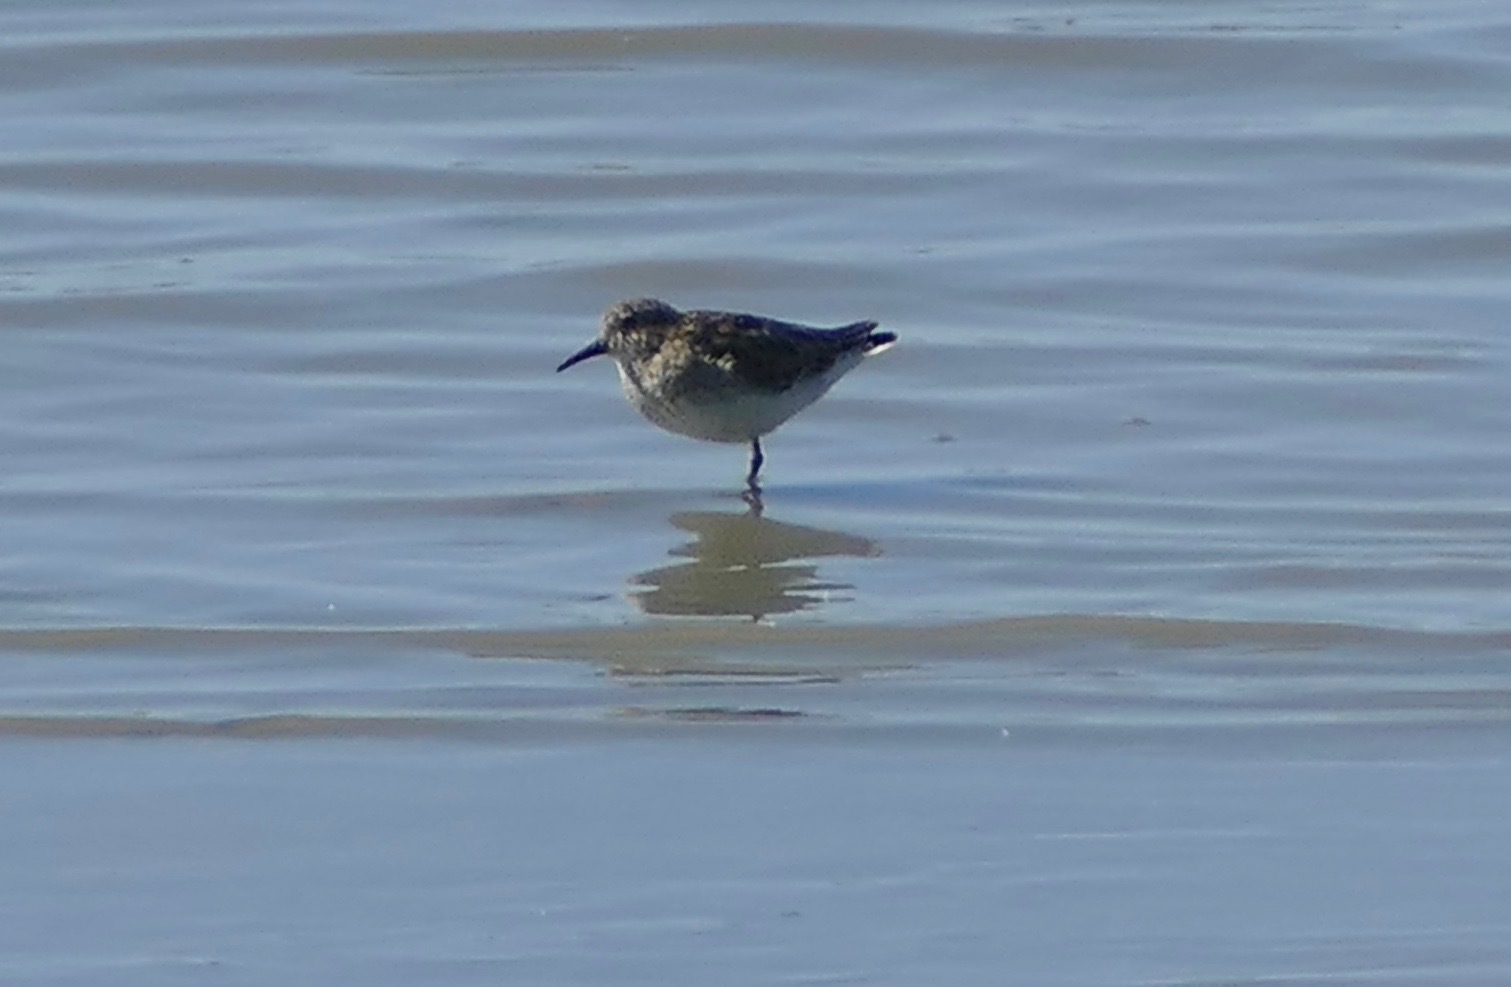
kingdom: Animalia
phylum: Chordata
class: Aves
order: Charadriiformes
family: Scolopacidae
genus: Calidris
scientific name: Calidris minutilla
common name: Least sandpiper
